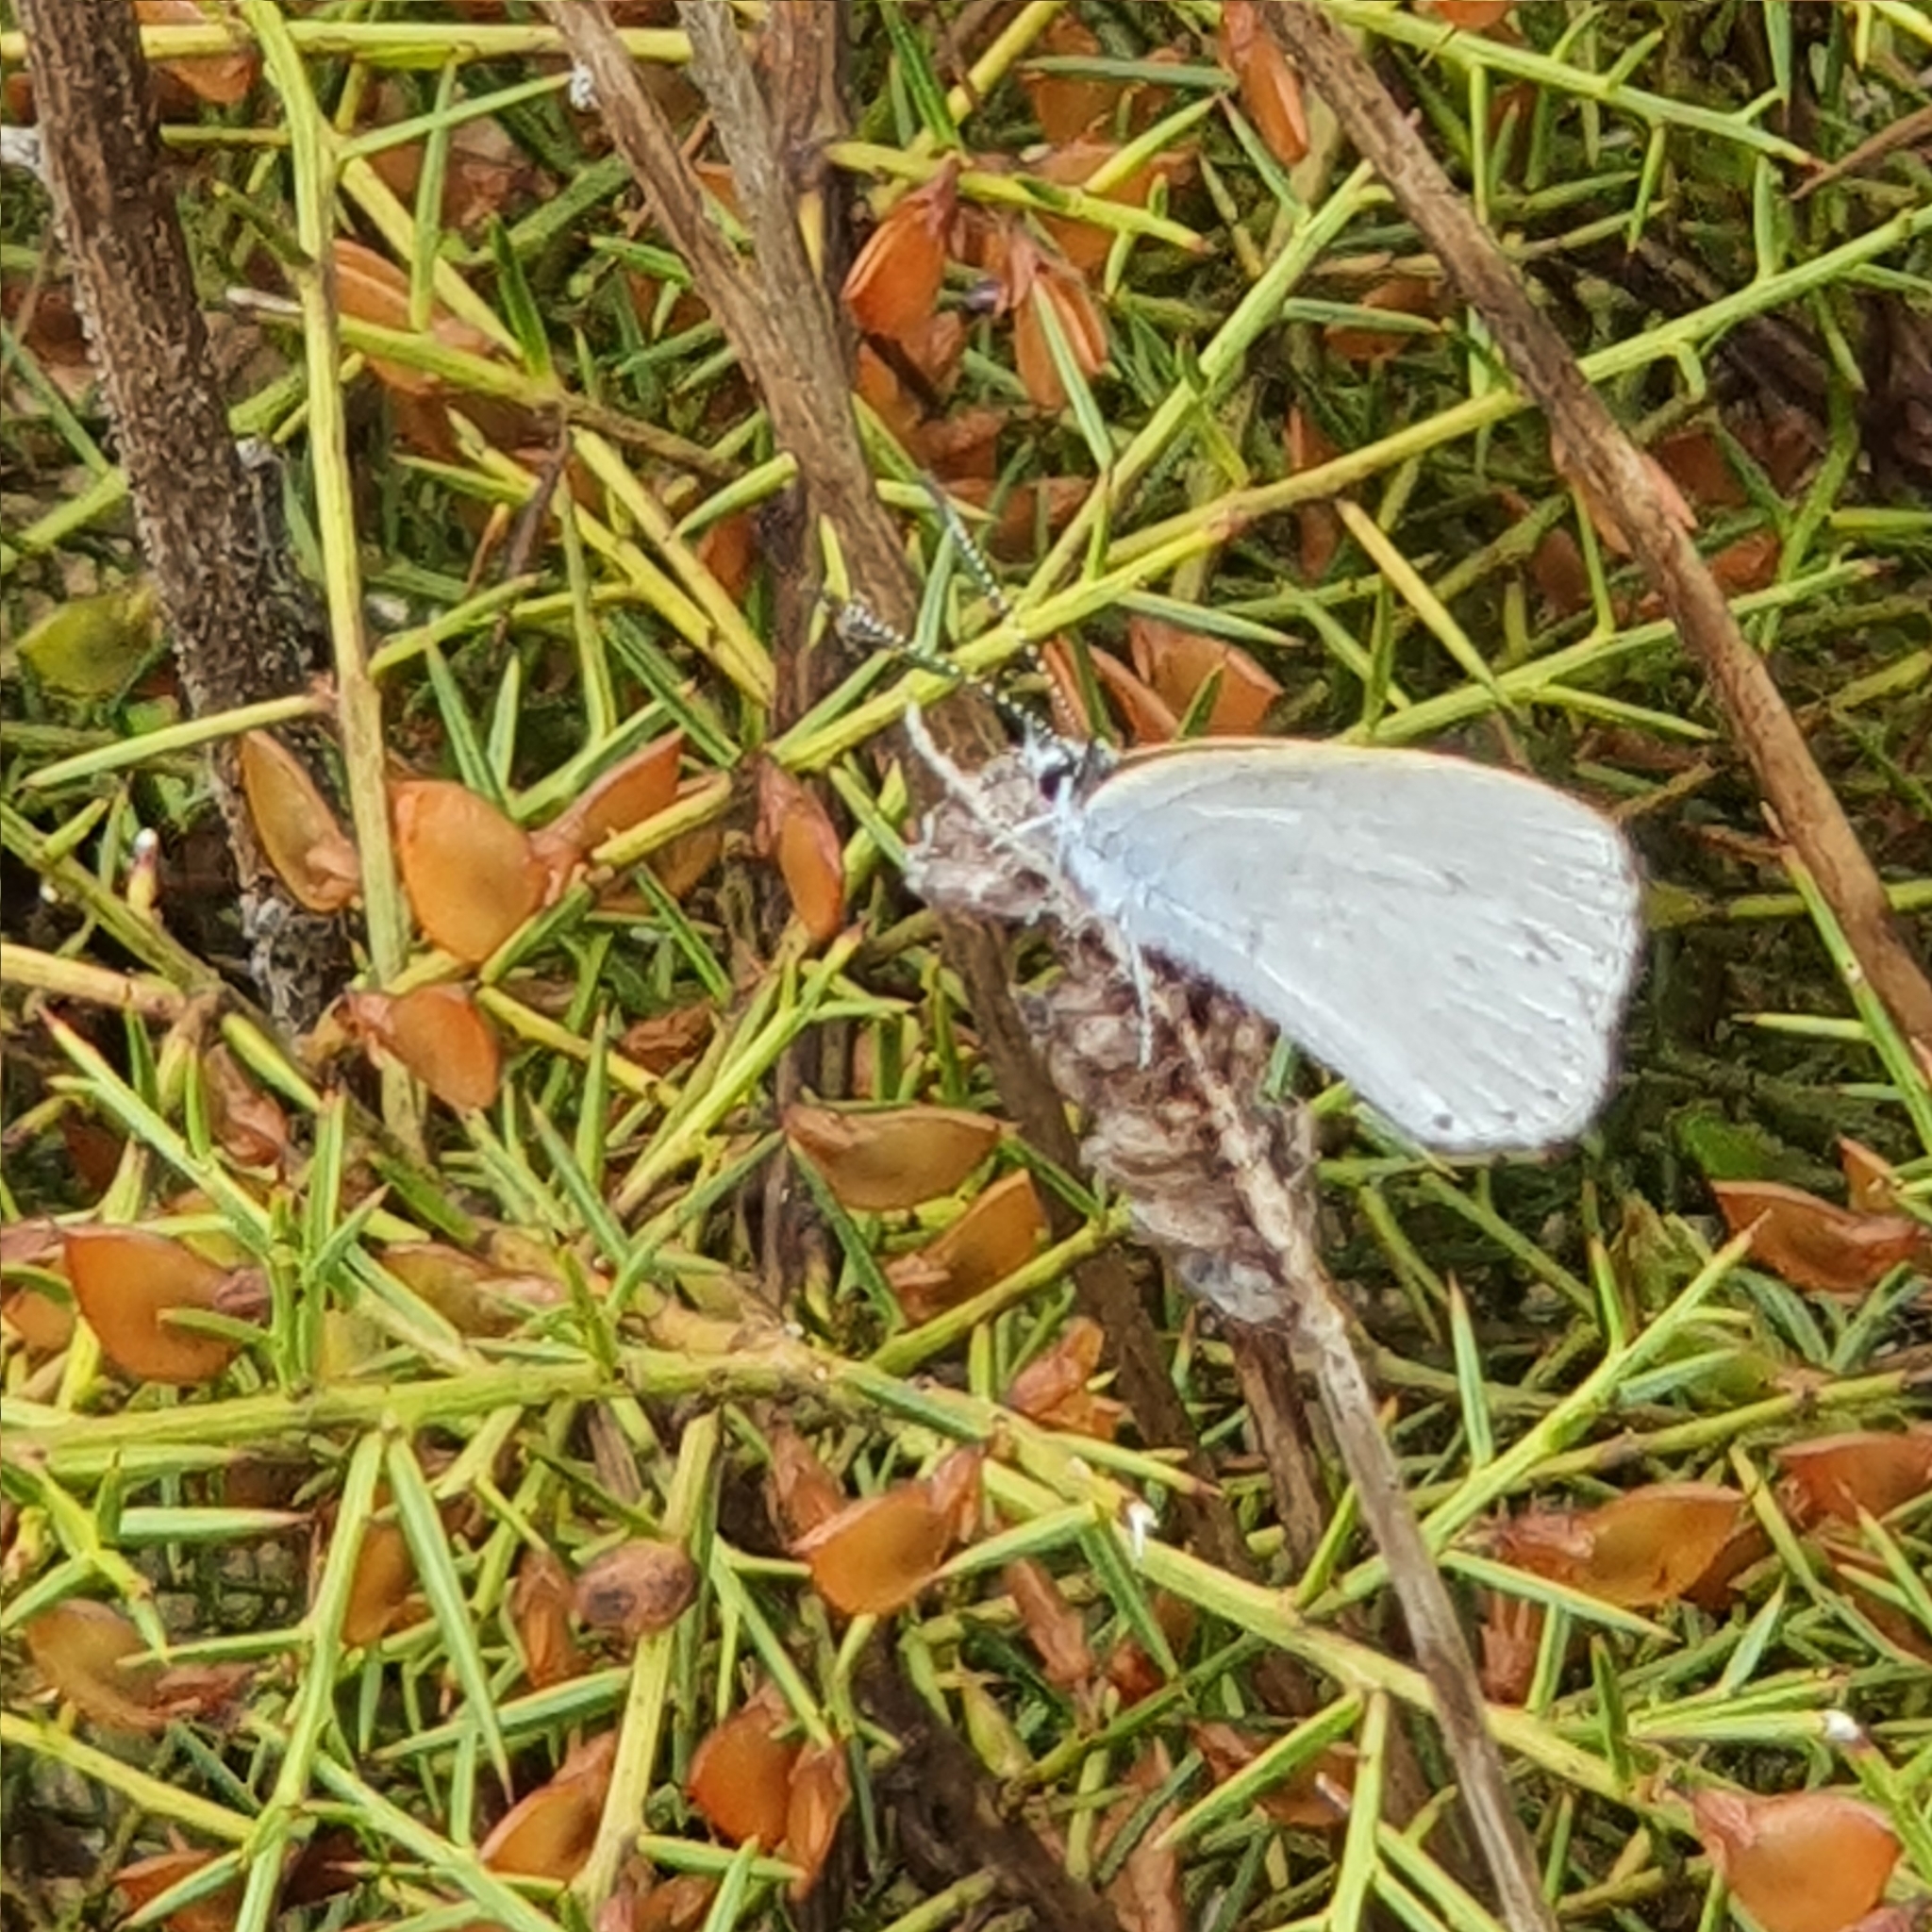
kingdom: Animalia
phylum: Arthropoda
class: Insecta
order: Lepidoptera
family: Lycaenidae
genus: Candalides
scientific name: Candalides heathi
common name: Rayed blue
